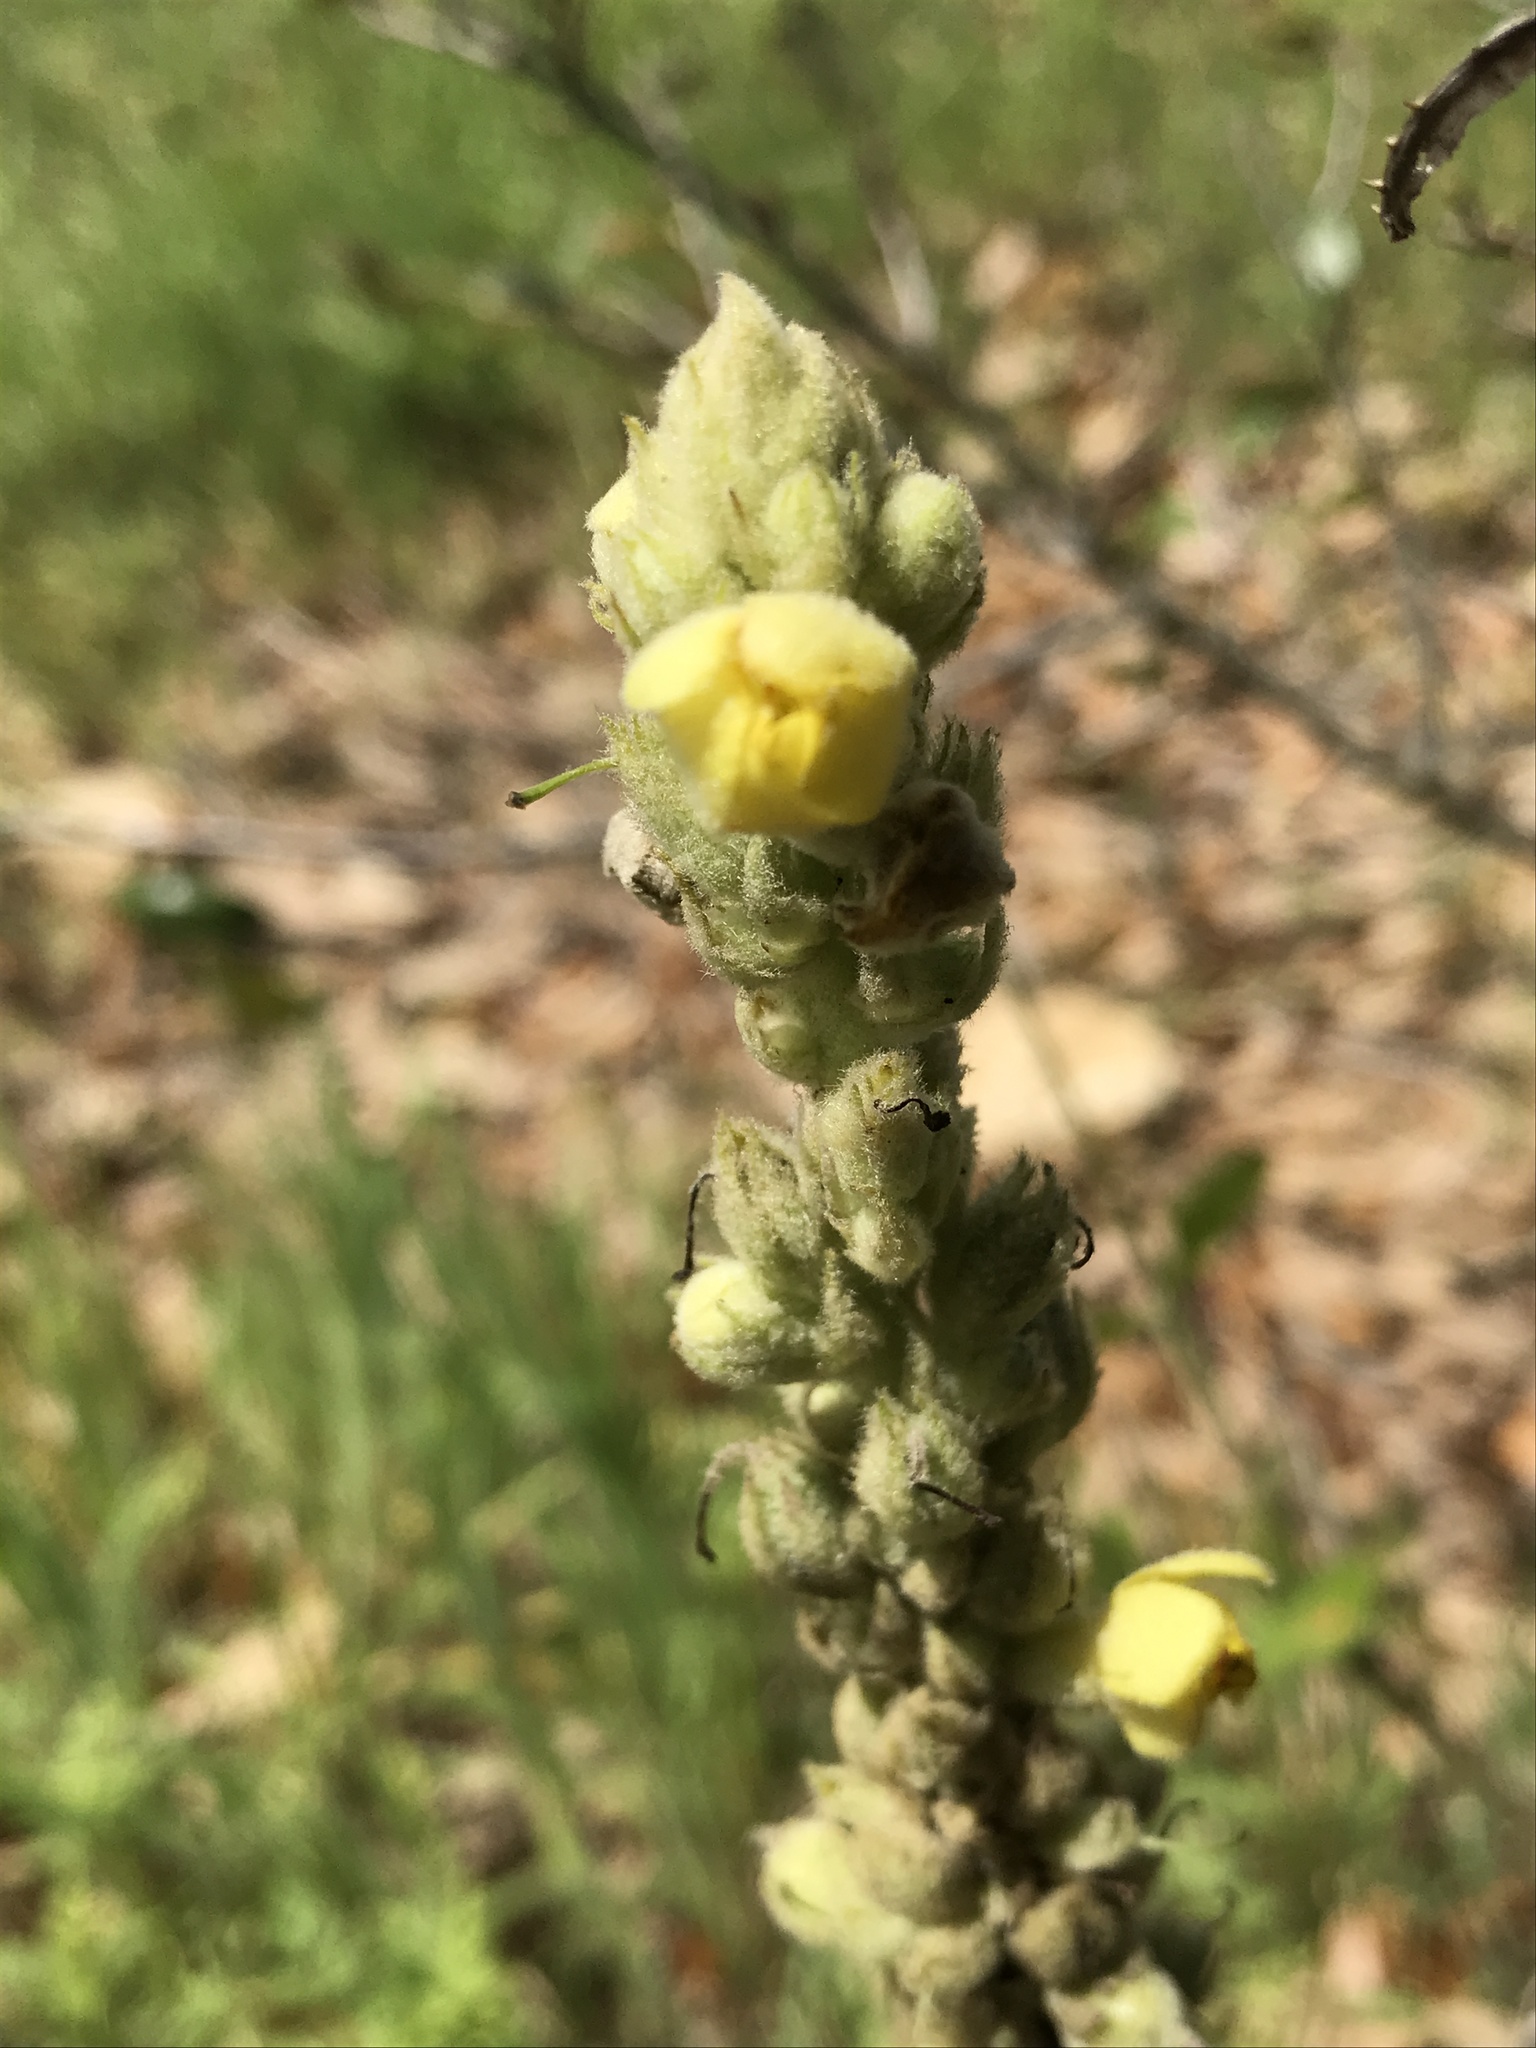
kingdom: Plantae
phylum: Tracheophyta
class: Magnoliopsida
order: Lamiales
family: Scrophulariaceae
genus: Verbascum
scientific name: Verbascum thapsus
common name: Common mullein
